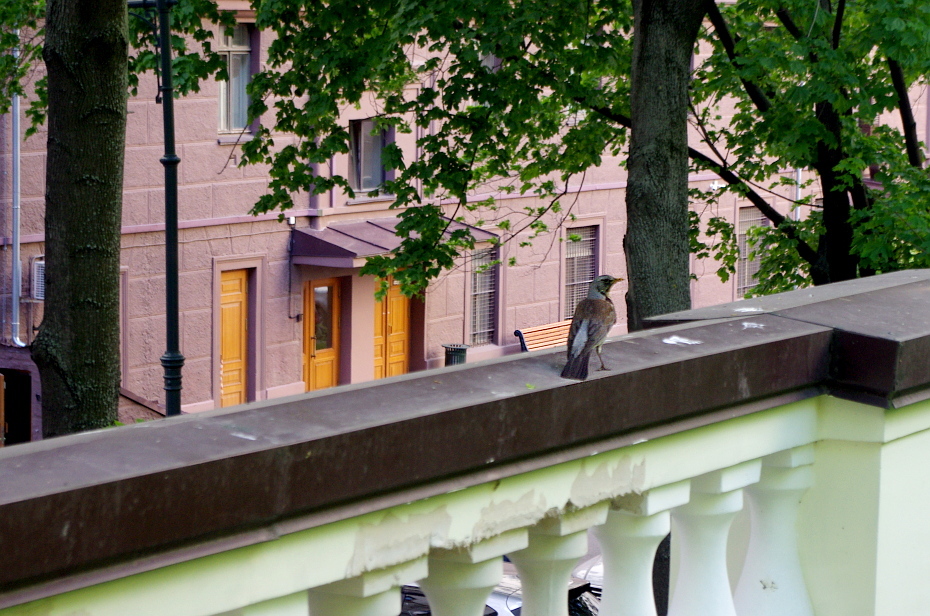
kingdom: Animalia
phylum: Chordata
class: Aves
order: Passeriformes
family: Turdidae
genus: Turdus
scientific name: Turdus pilaris
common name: Fieldfare
